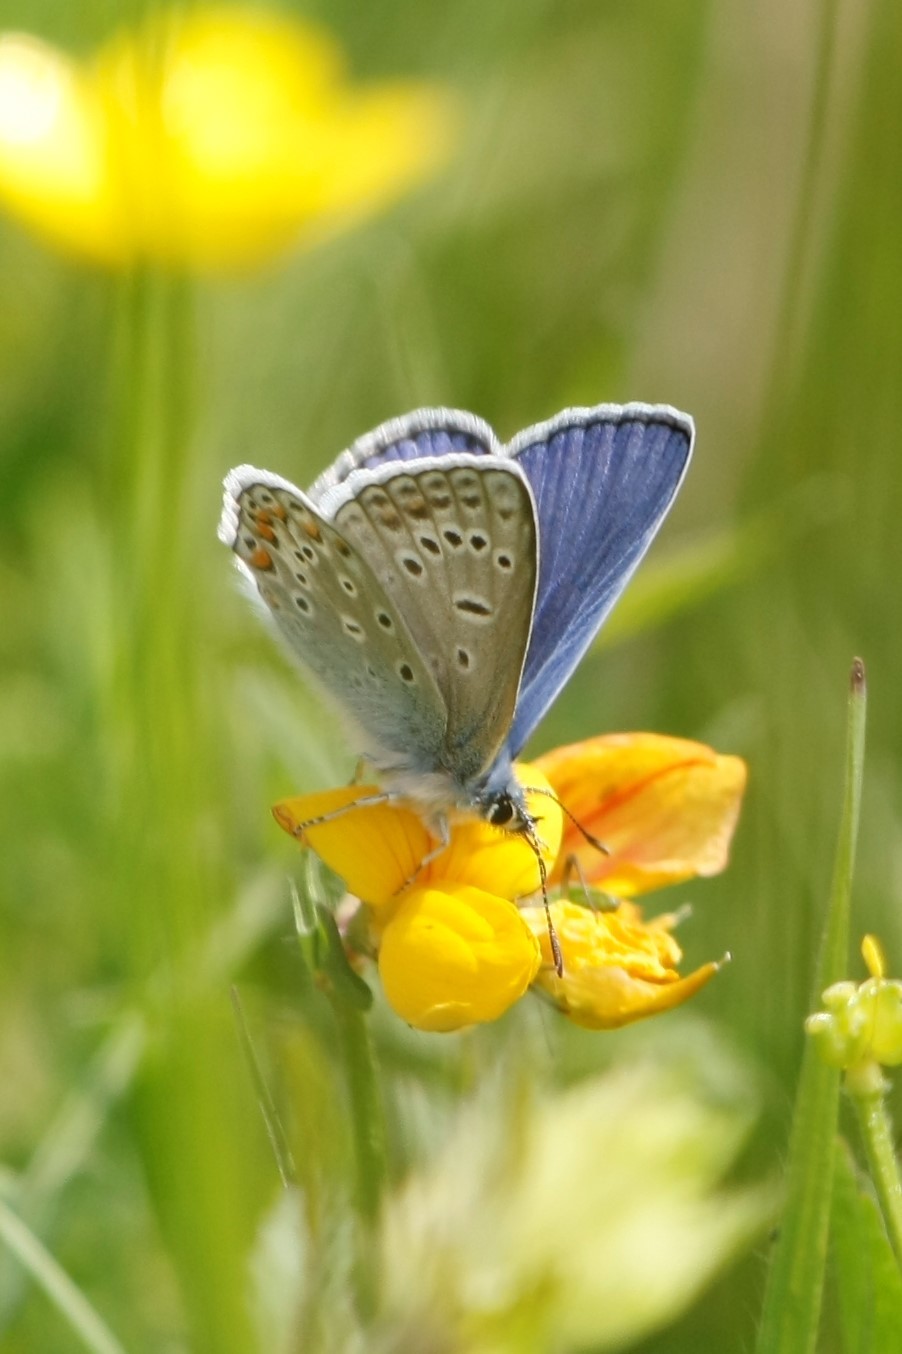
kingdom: Animalia
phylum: Arthropoda
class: Insecta
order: Lepidoptera
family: Lycaenidae
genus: Polyommatus
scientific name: Polyommatus icarus
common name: Common blue
